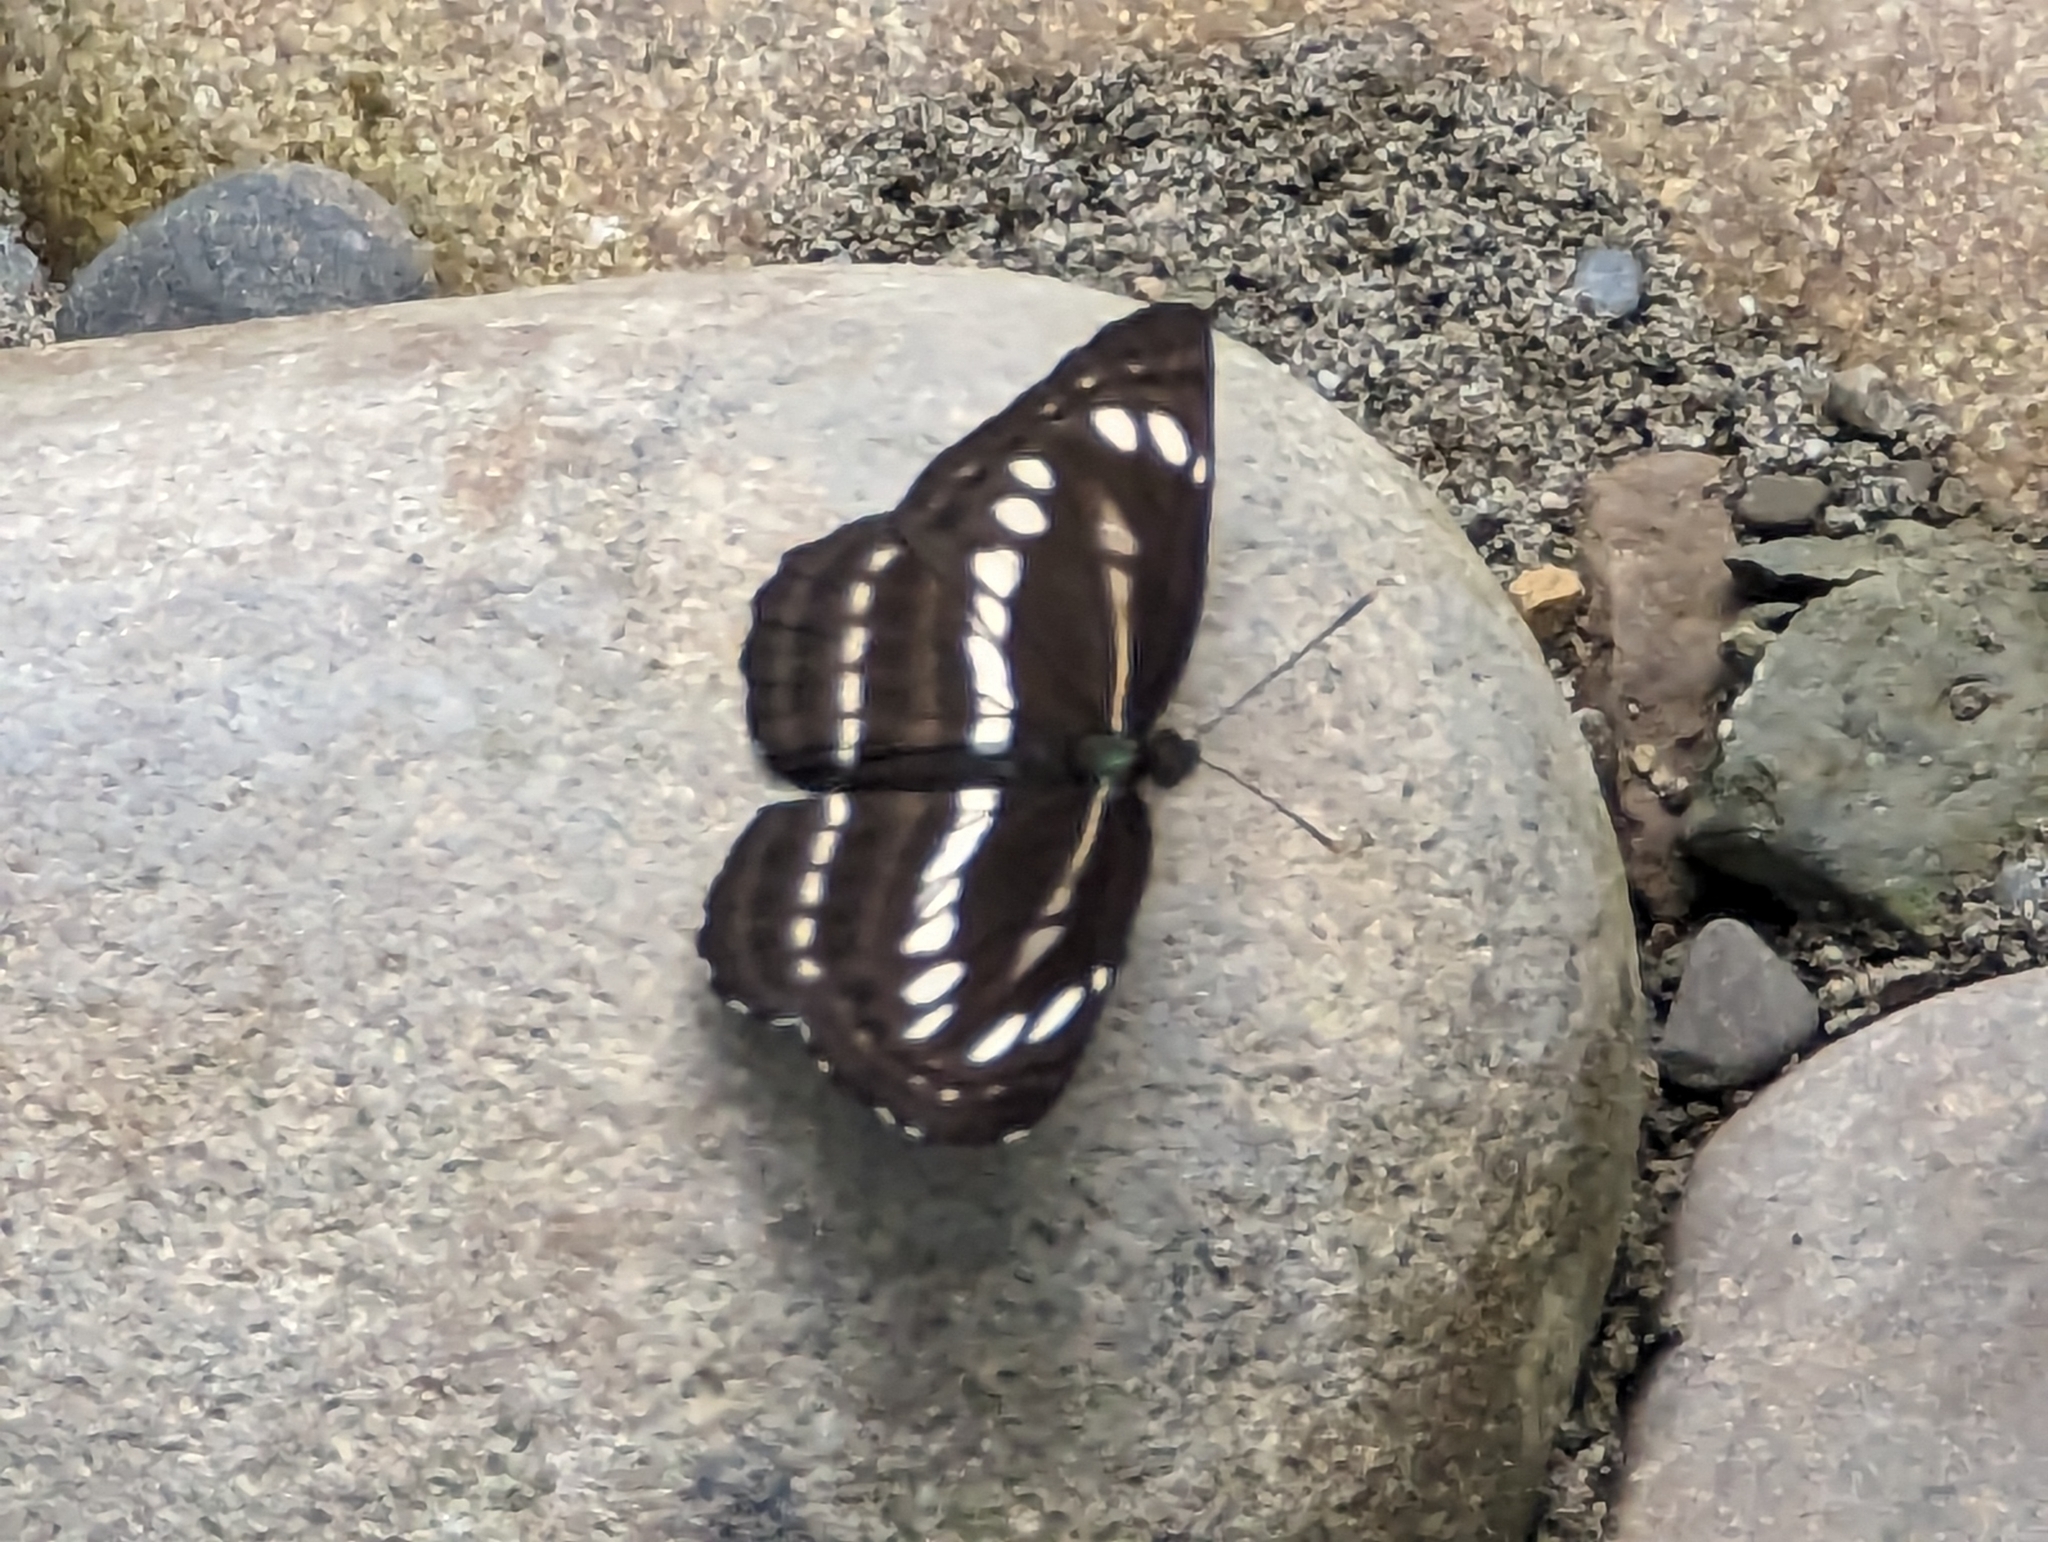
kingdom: Animalia
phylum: Arthropoda
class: Insecta
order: Lepidoptera
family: Nymphalidae
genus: Neptis
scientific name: Neptis nata
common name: Sullied brown sailer
